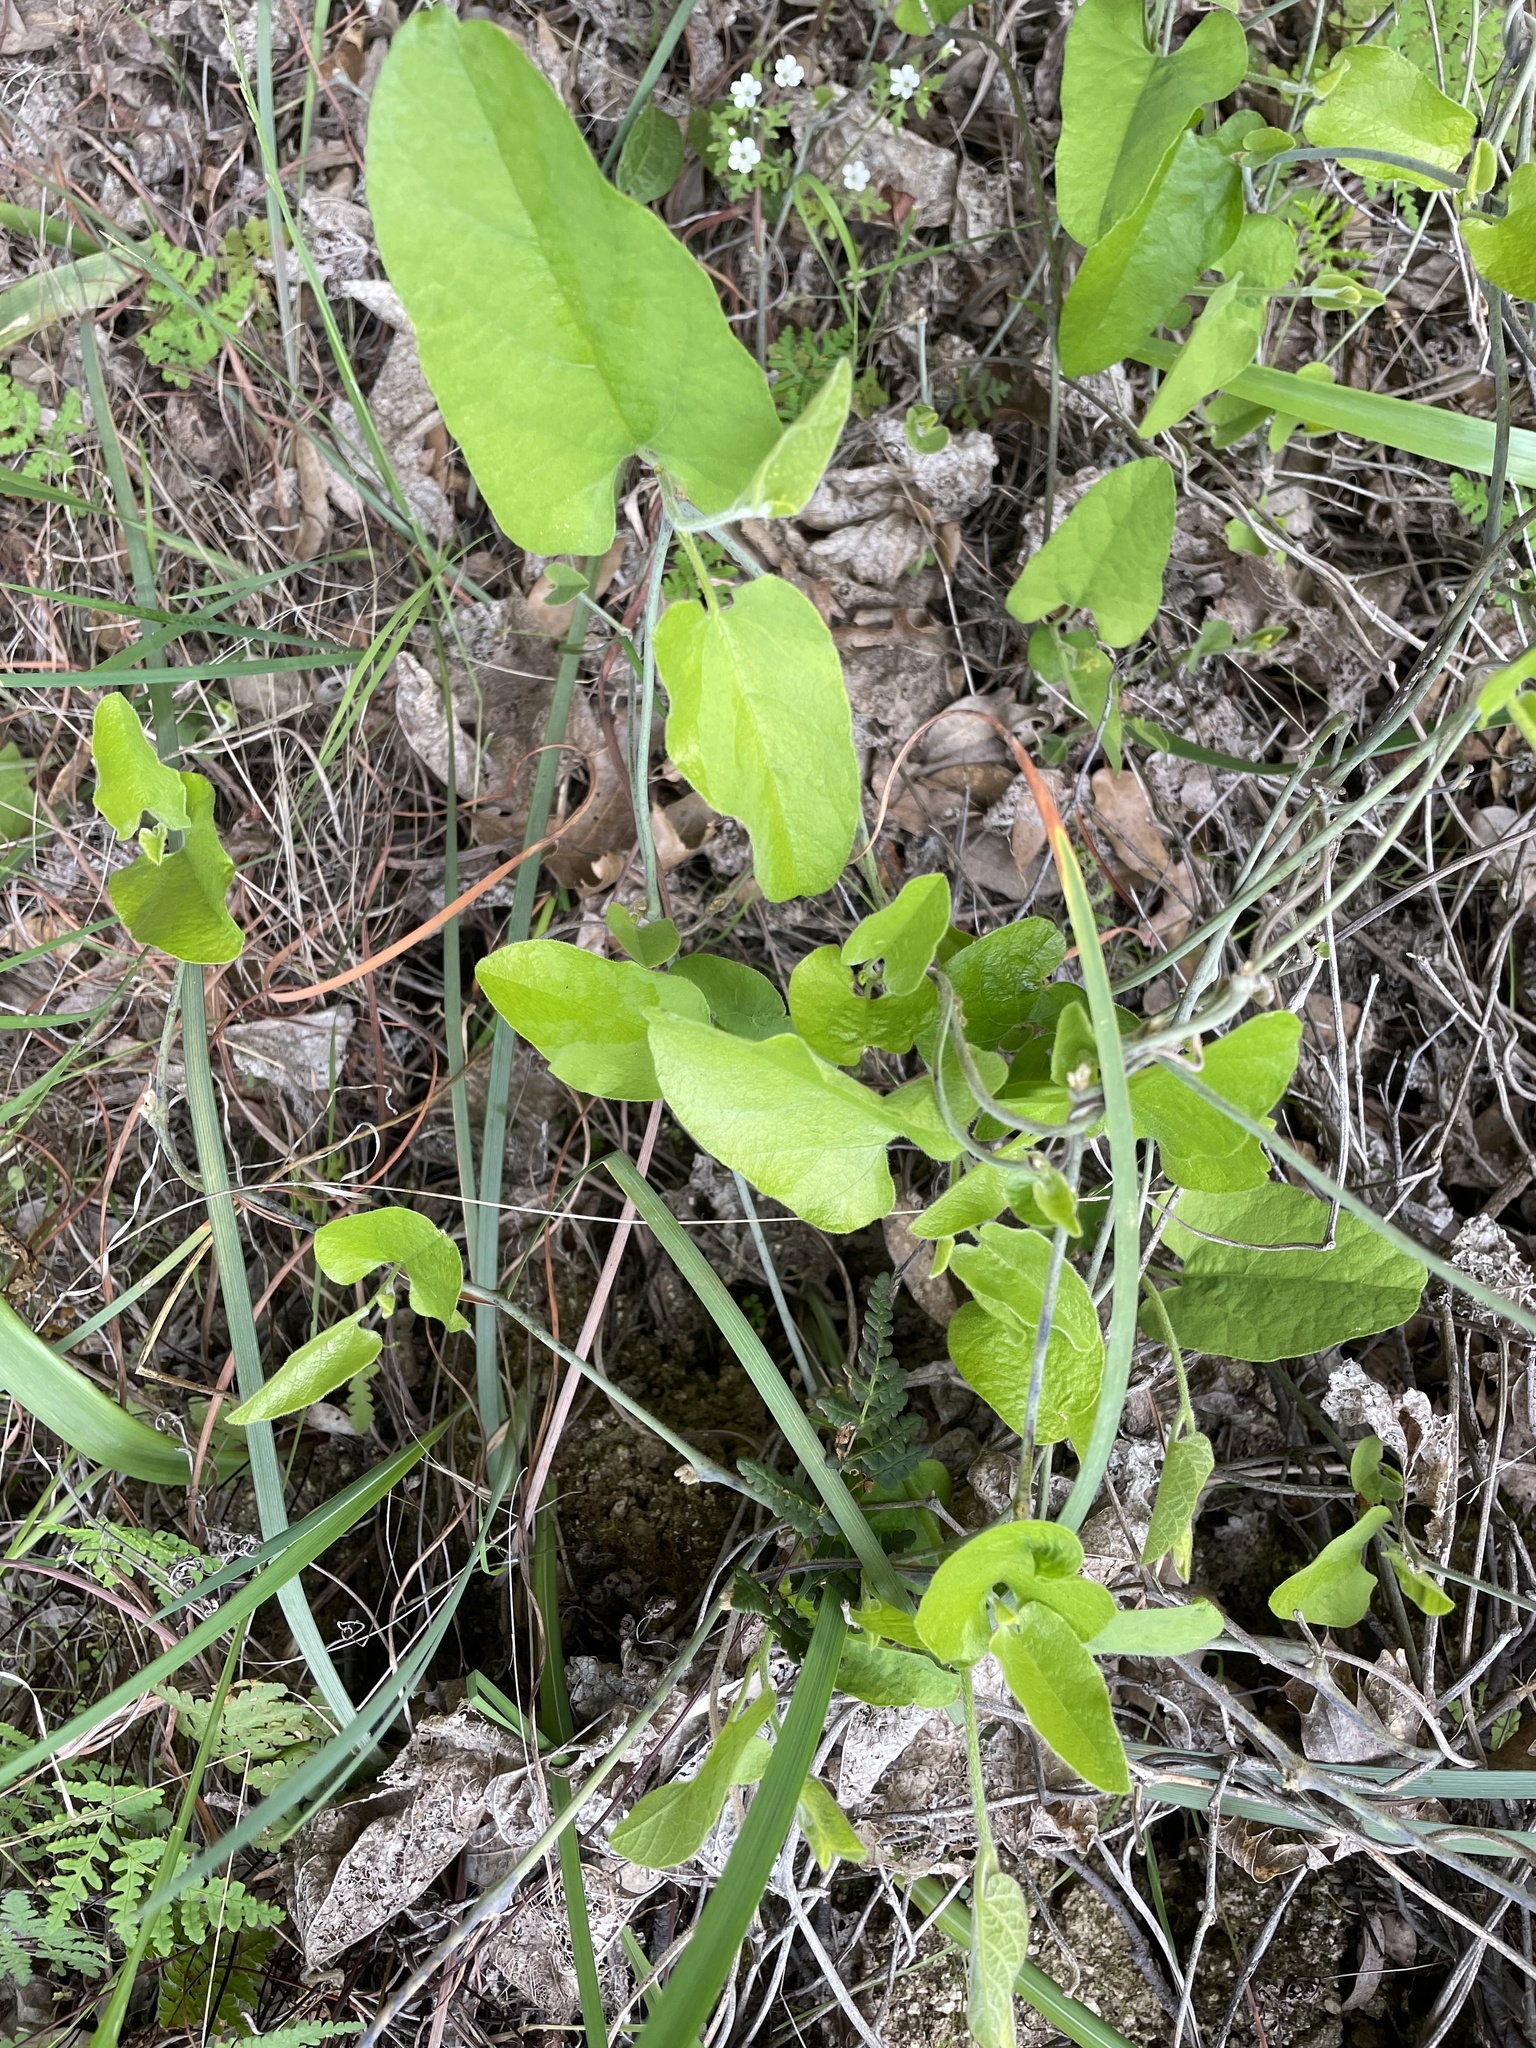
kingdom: Plantae
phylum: Tracheophyta
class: Magnoliopsida
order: Piperales
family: Aristolochiaceae
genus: Isotrema
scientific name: Isotrema californicum
